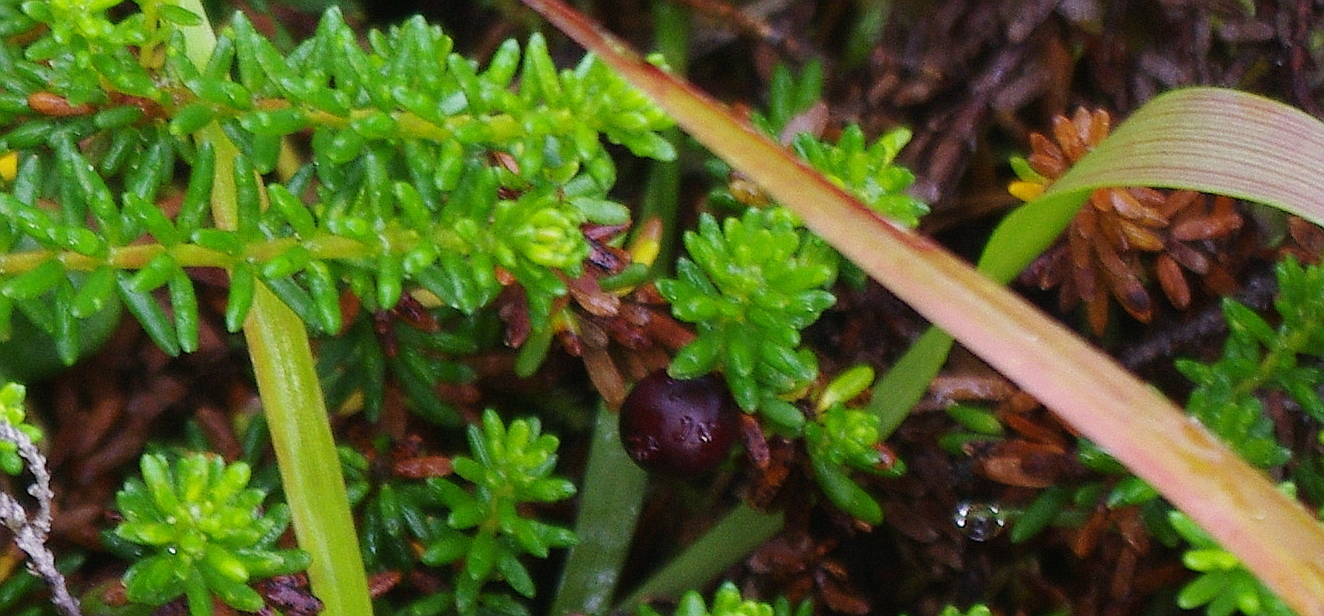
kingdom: Plantae
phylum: Tracheophyta
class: Liliopsida
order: Poales
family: Juncaceae
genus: Luzula
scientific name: Luzula pilosa
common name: Hairy wood-rush
